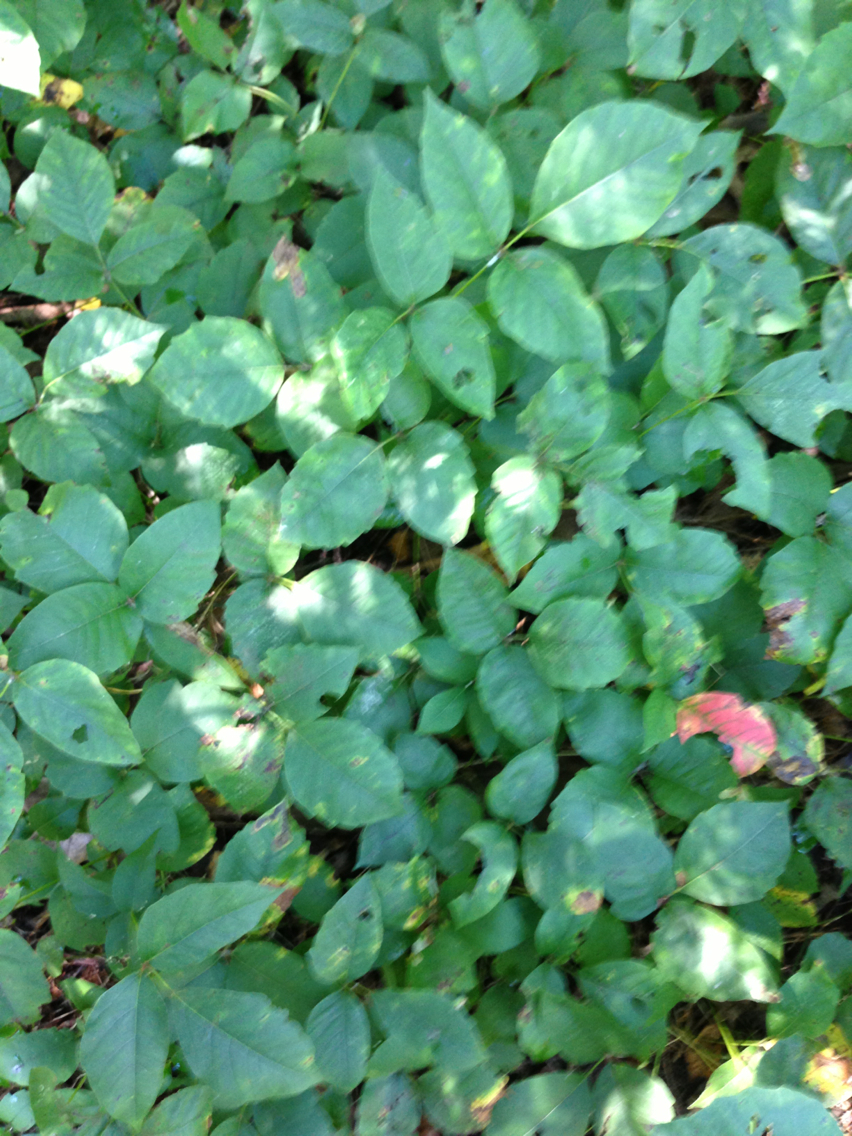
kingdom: Plantae
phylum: Tracheophyta
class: Magnoliopsida
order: Sapindales
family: Anacardiaceae
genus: Toxicodendron
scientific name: Toxicodendron radicans
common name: Poison ivy
